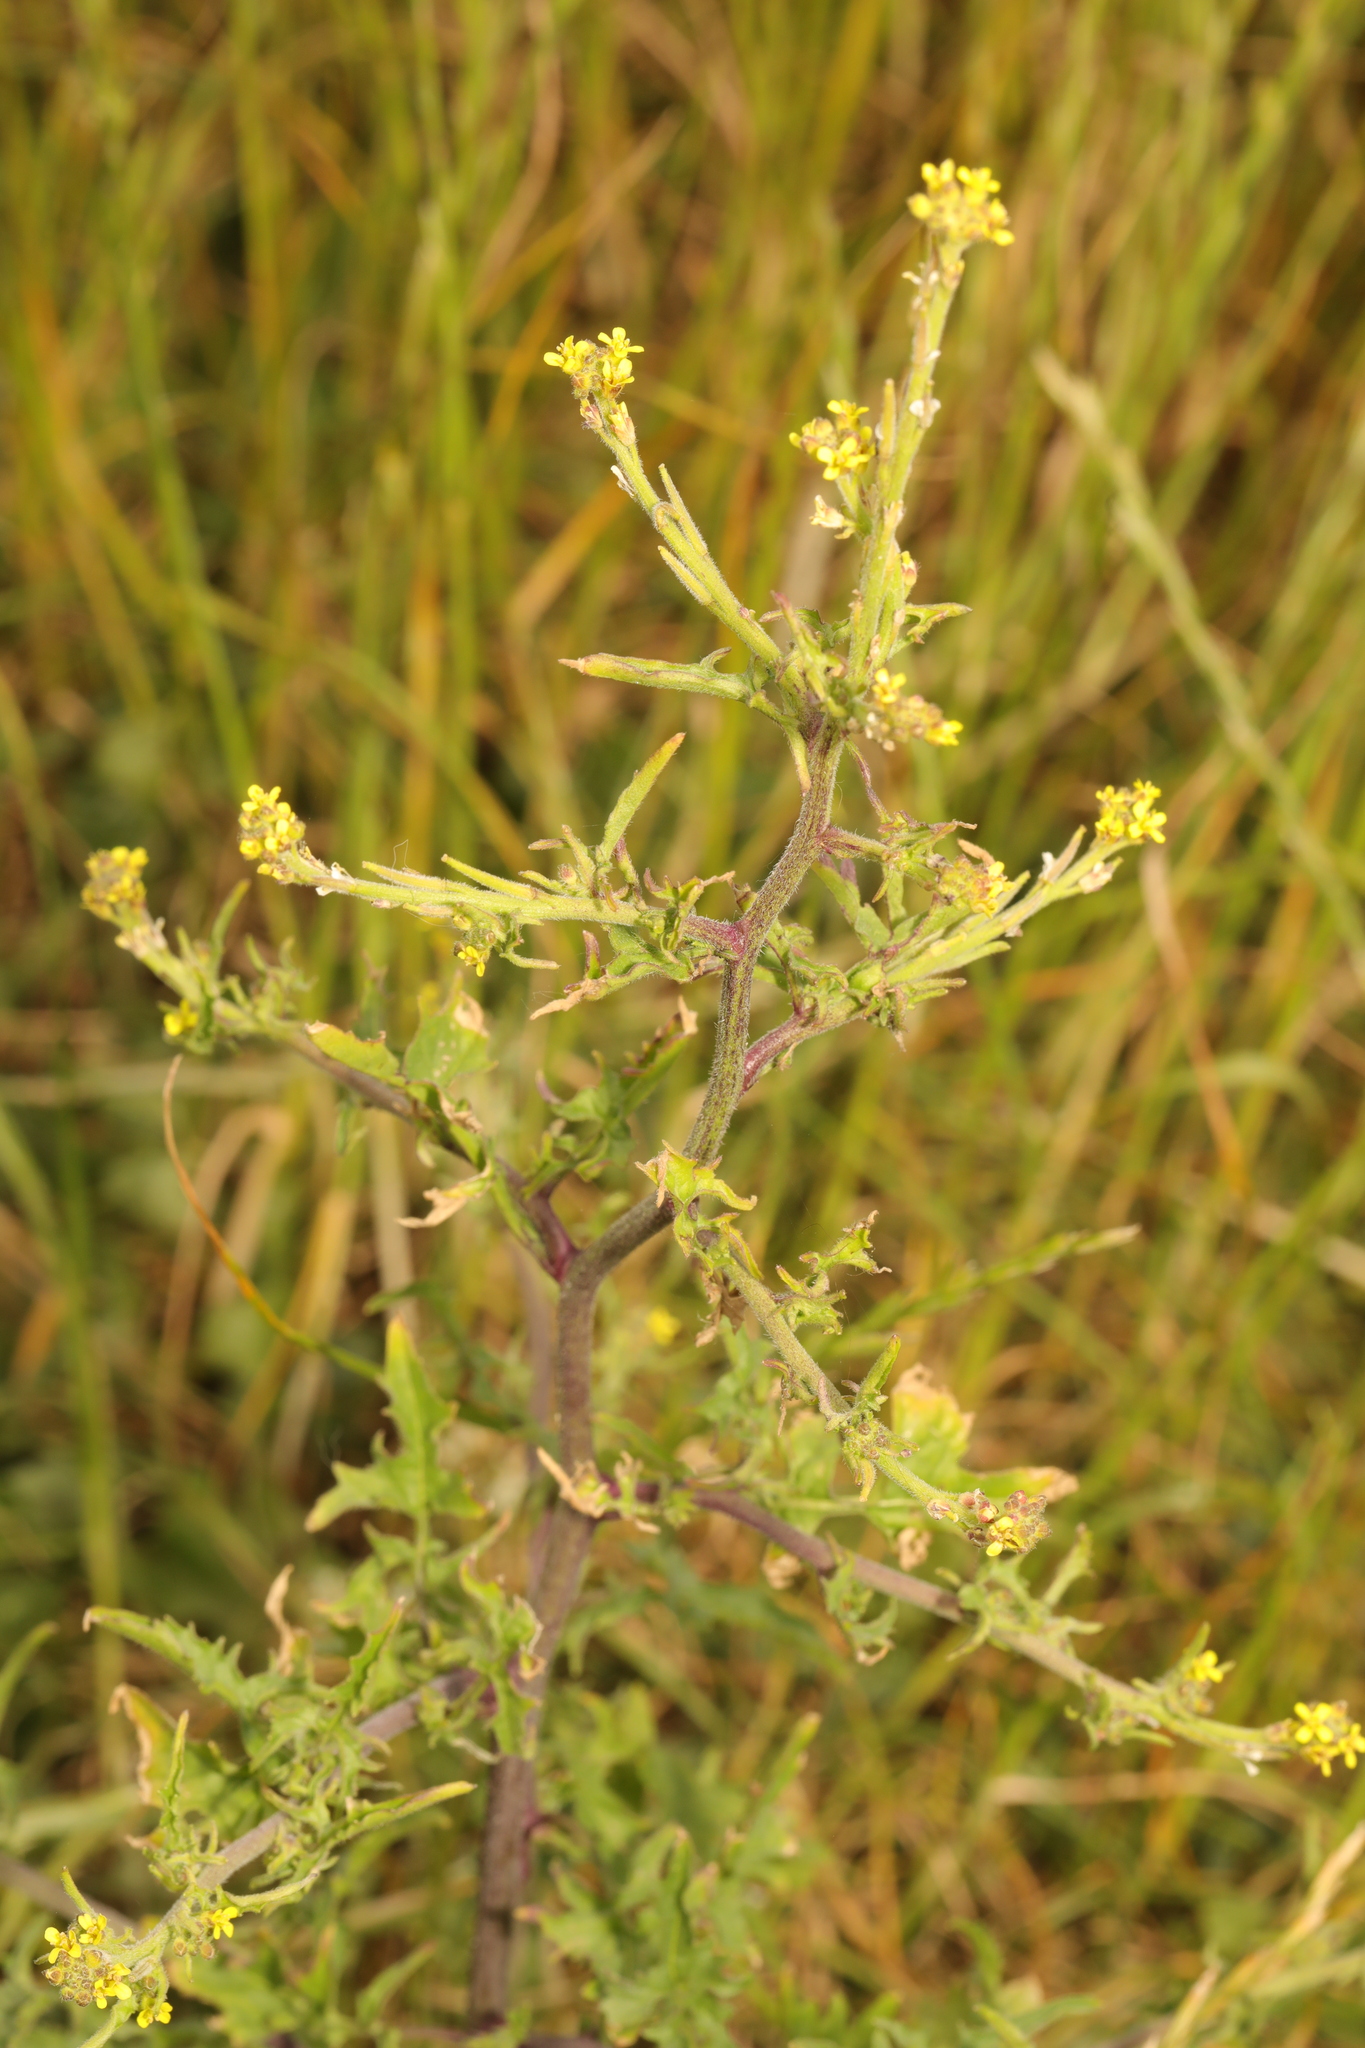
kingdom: Plantae
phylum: Tracheophyta
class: Magnoliopsida
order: Brassicales
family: Brassicaceae
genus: Sisymbrium
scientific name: Sisymbrium officinale
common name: Hedge mustard
